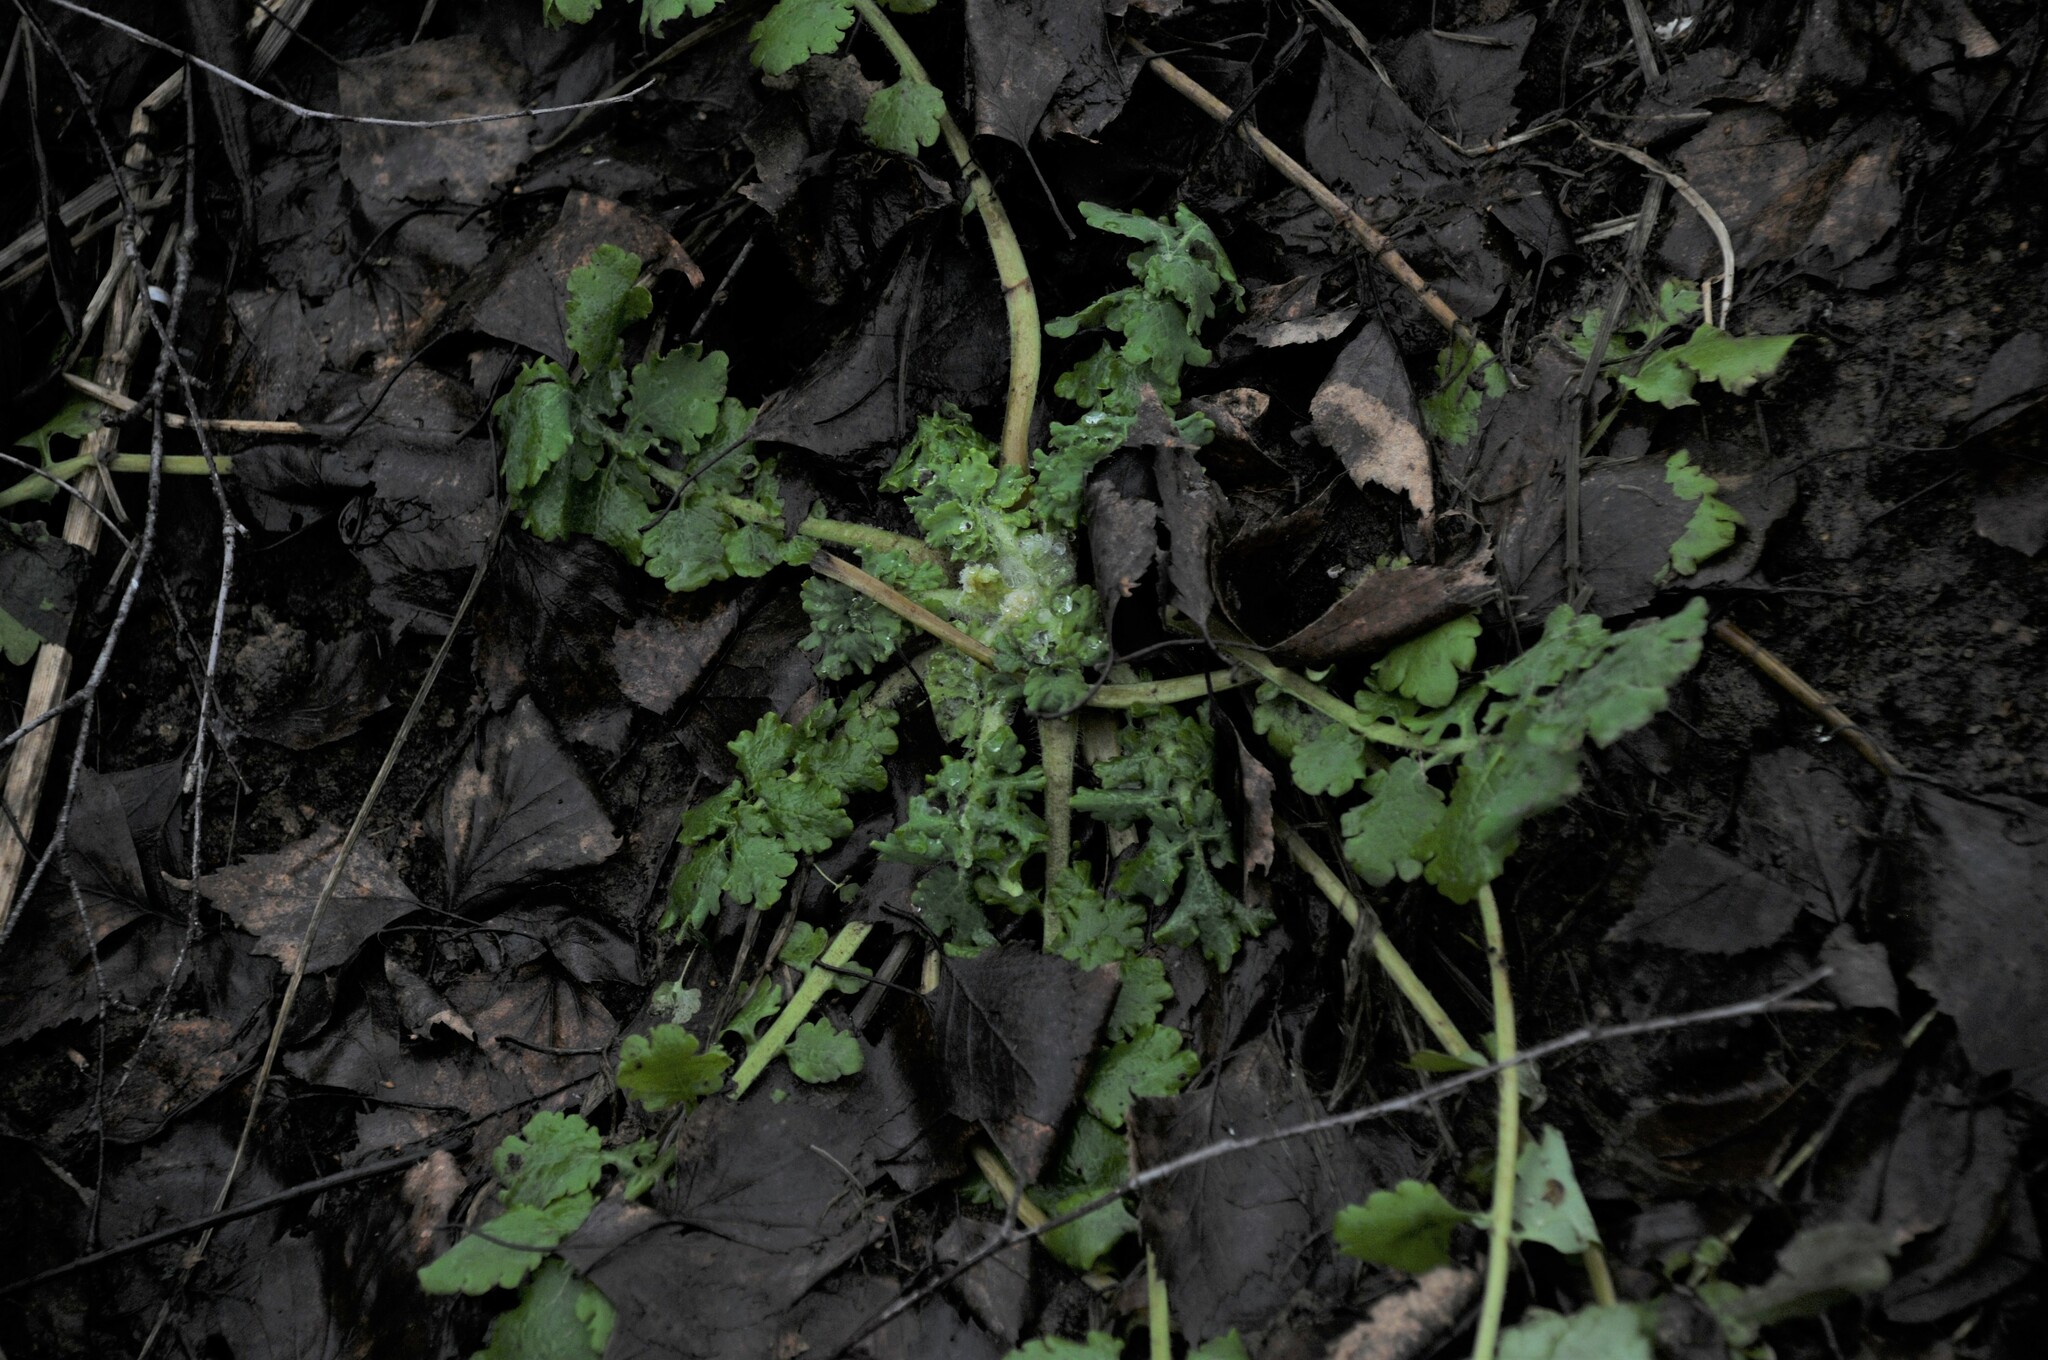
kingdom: Plantae
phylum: Tracheophyta
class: Magnoliopsida
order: Ranunculales
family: Papaveraceae
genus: Chelidonium
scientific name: Chelidonium majus
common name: Greater celandine
